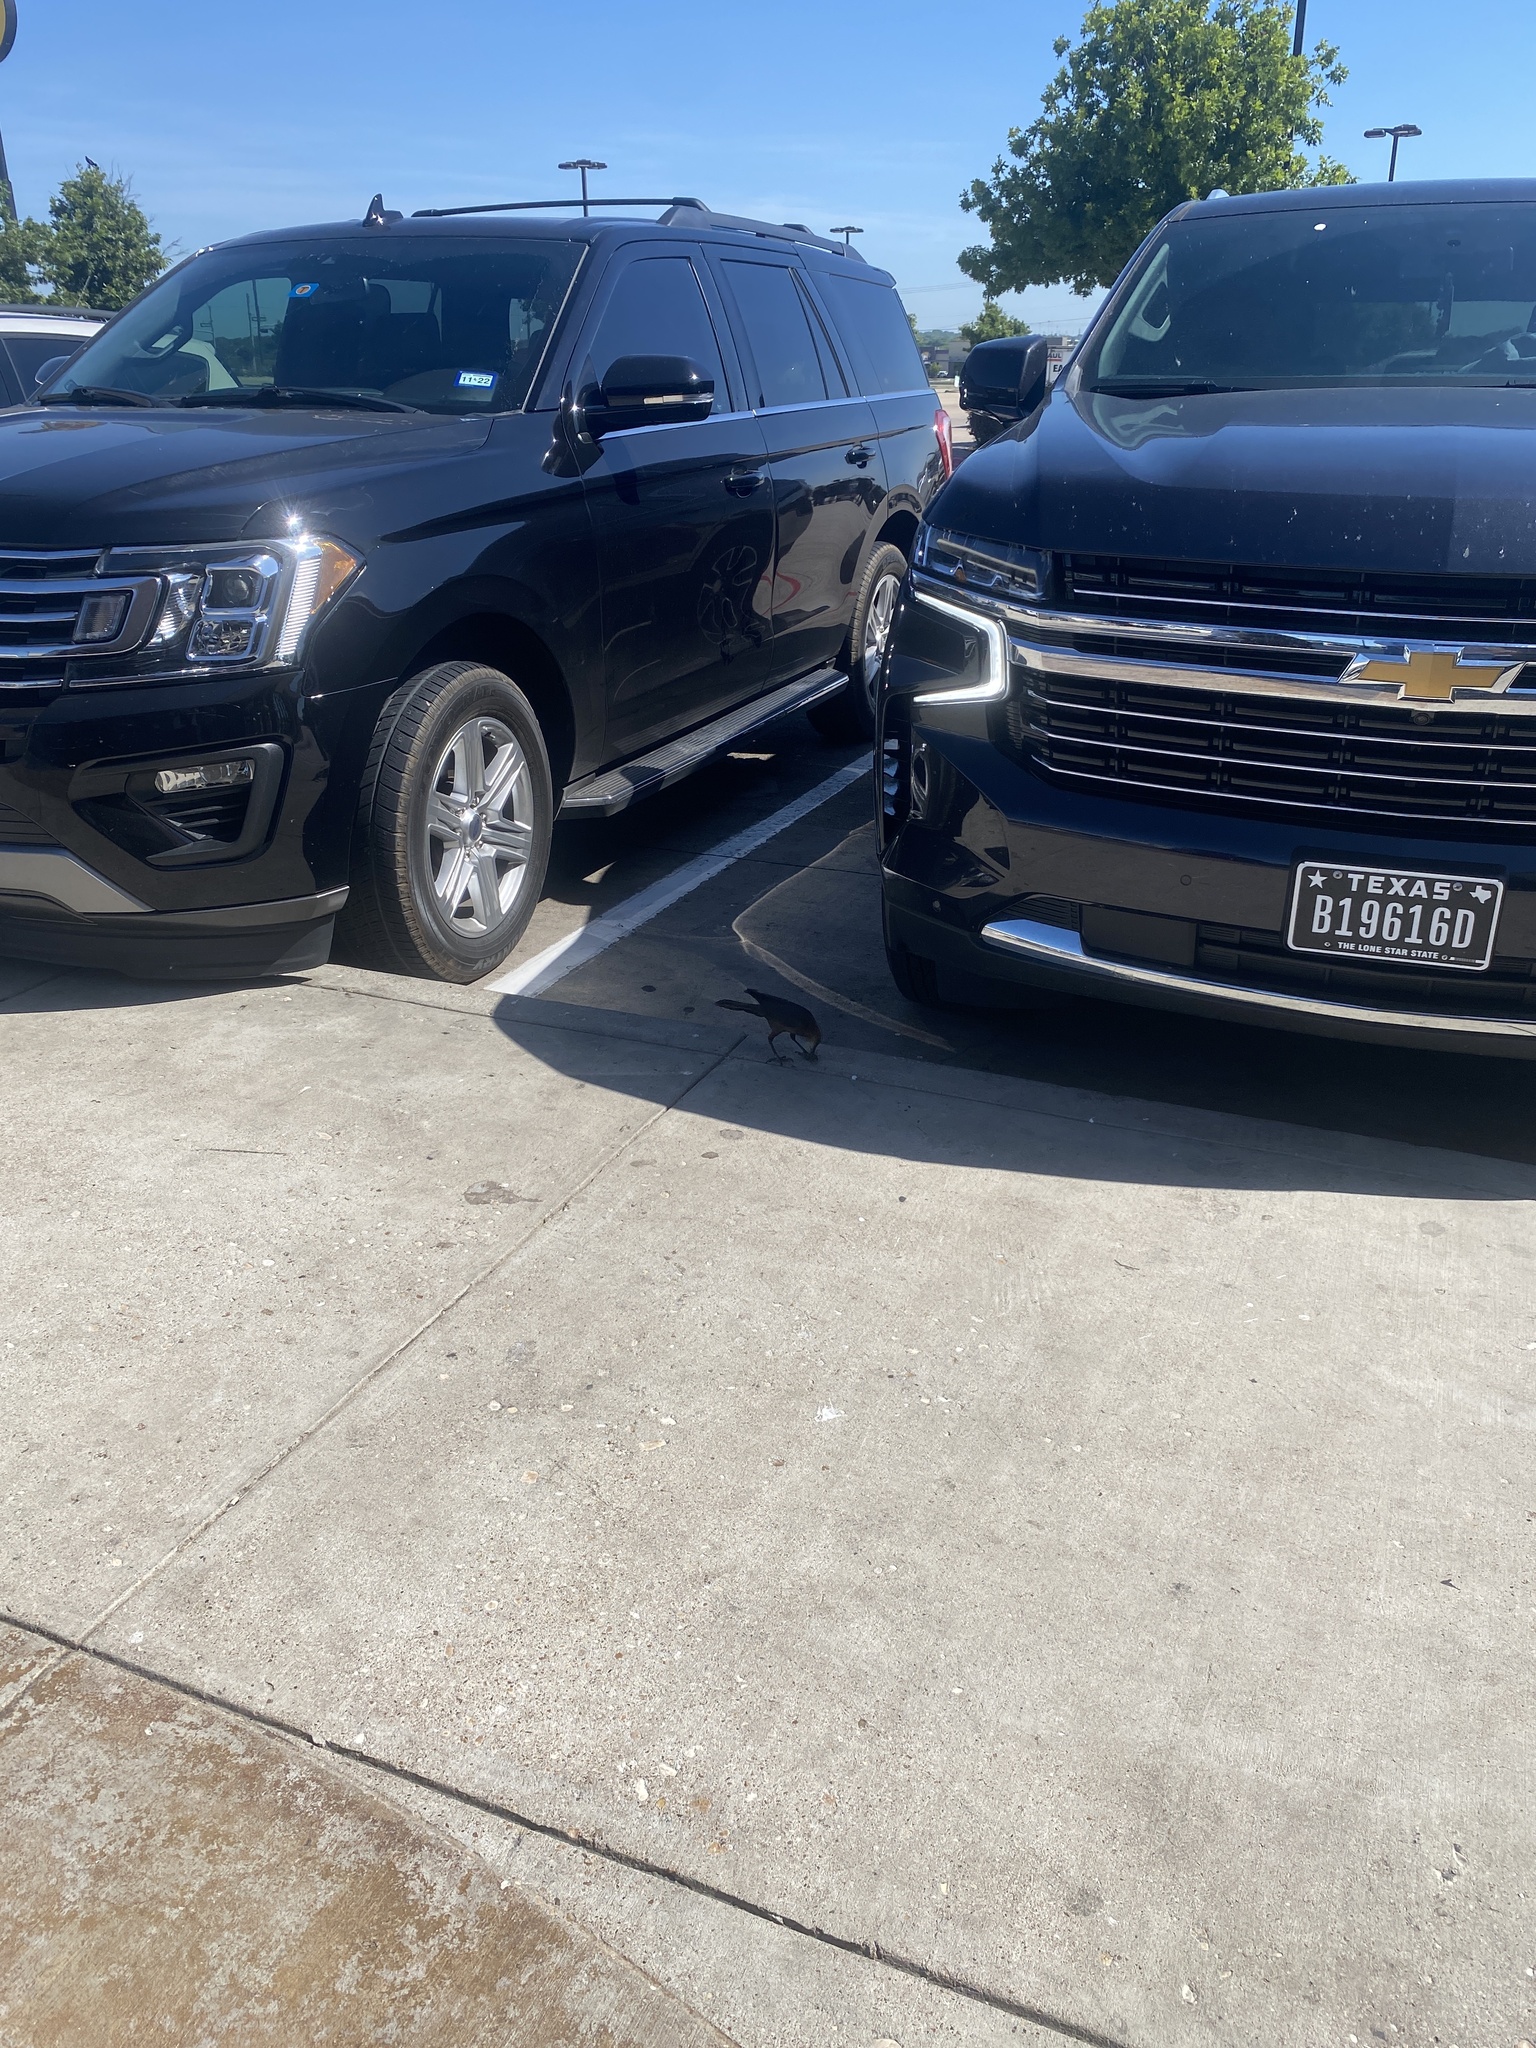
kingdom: Animalia
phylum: Chordata
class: Aves
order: Passeriformes
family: Icteridae
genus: Quiscalus
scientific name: Quiscalus mexicanus
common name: Great-tailed grackle
